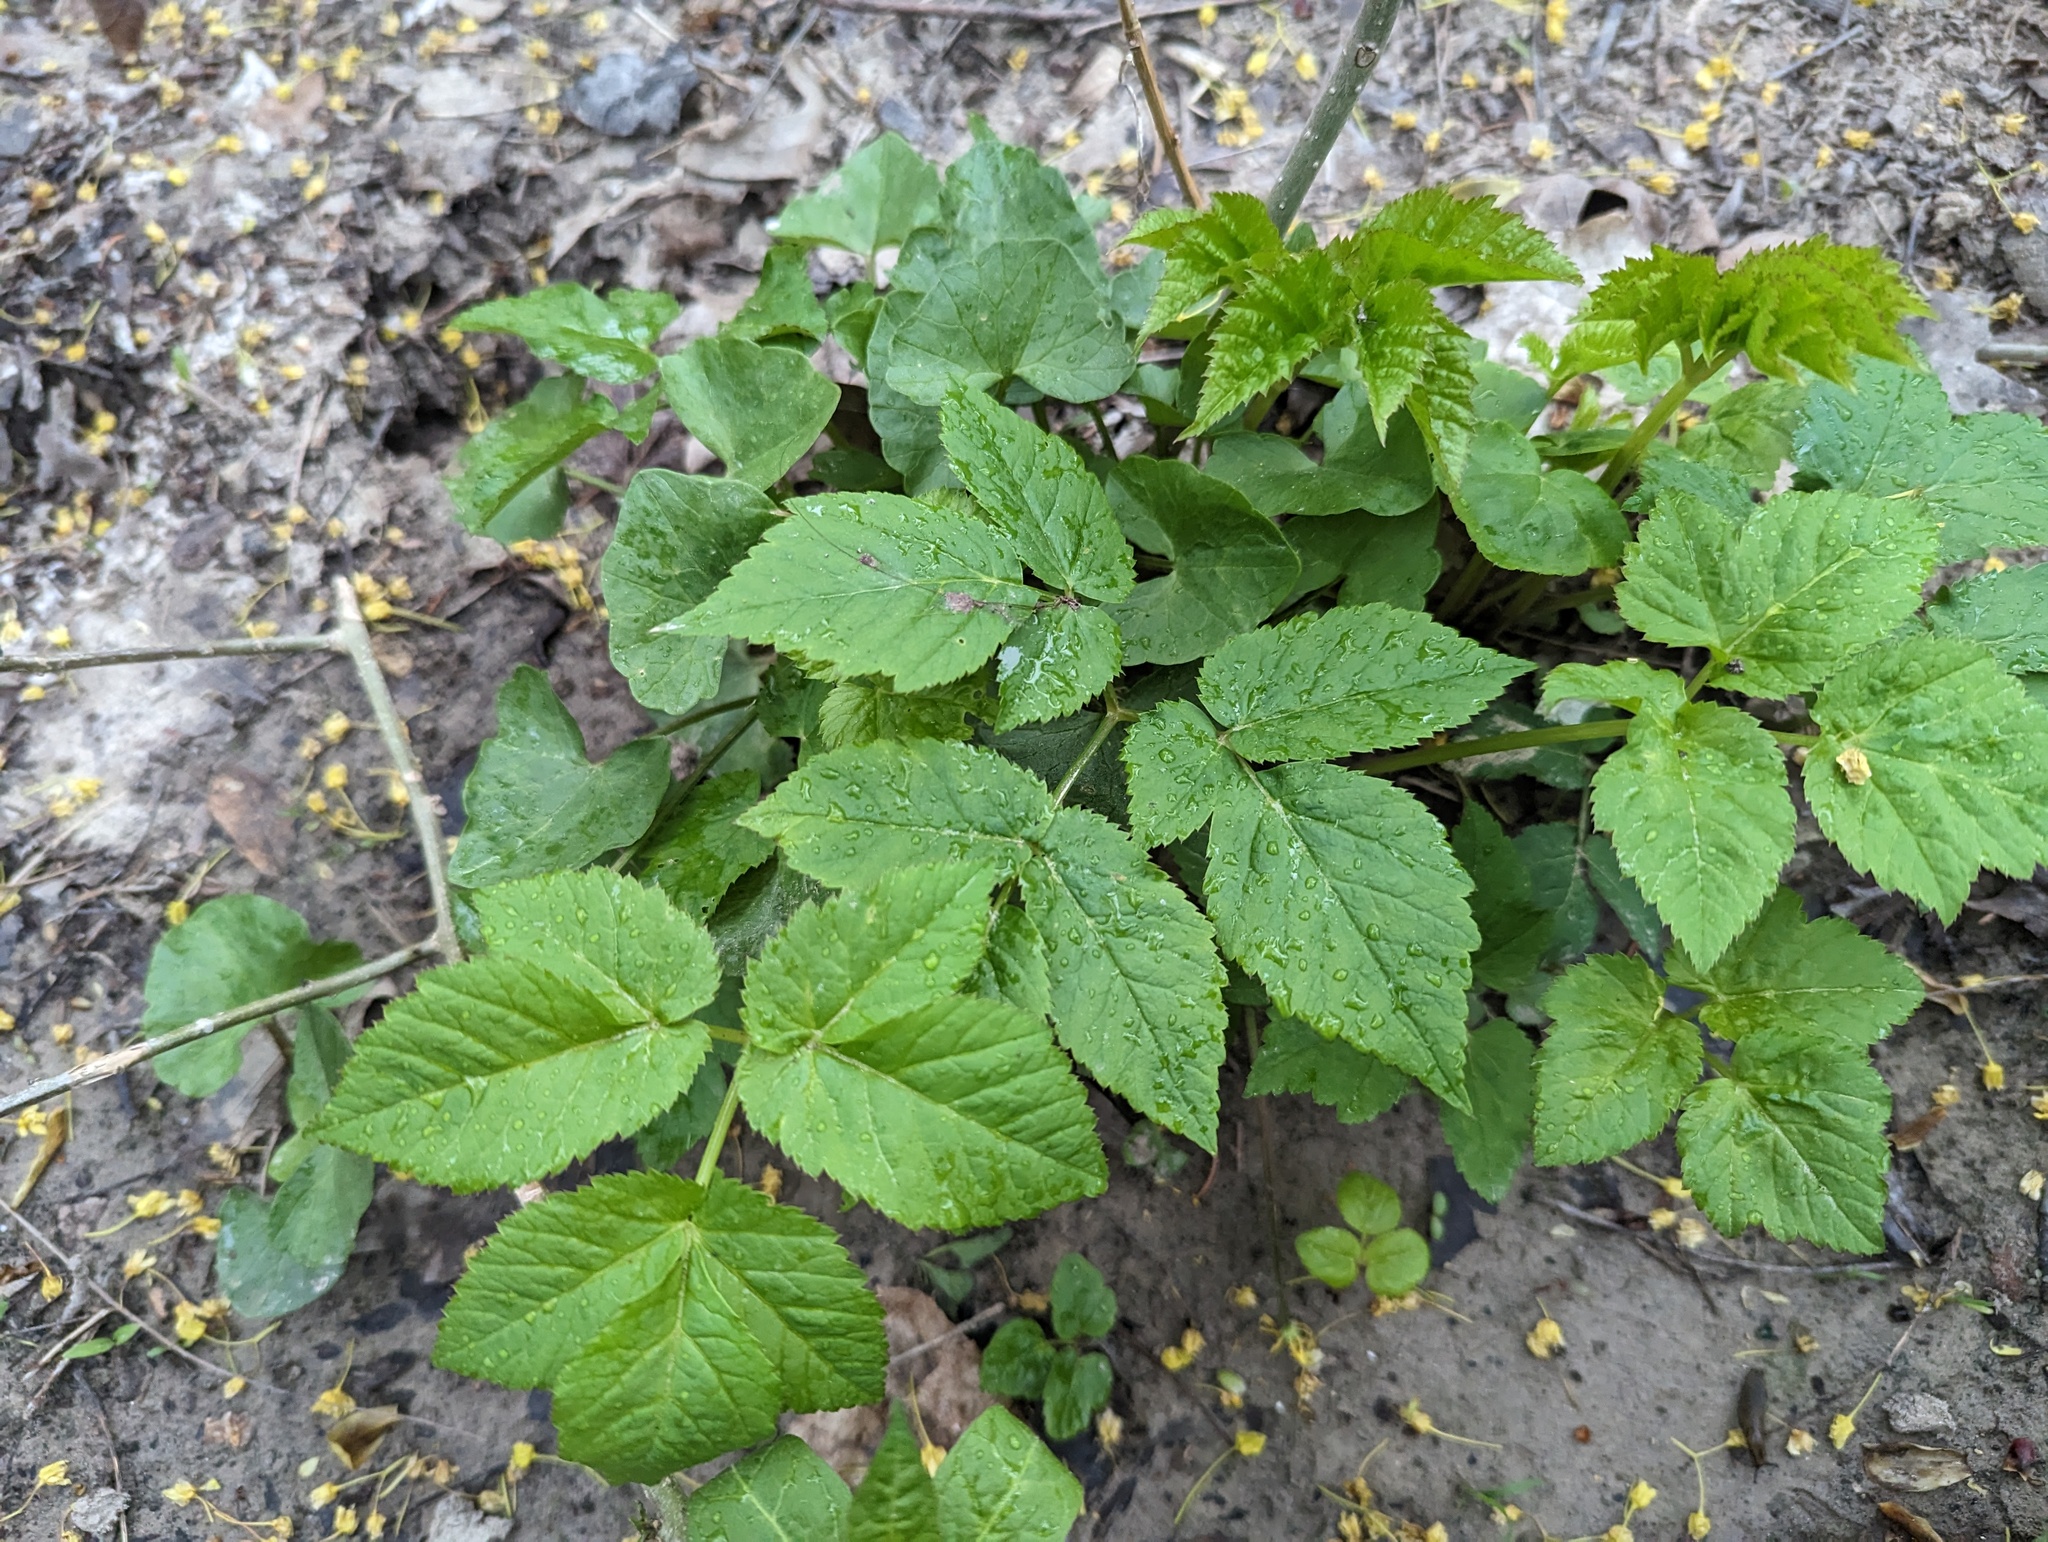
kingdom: Plantae
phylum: Tracheophyta
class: Magnoliopsida
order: Apiales
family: Apiaceae
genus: Aegopodium
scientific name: Aegopodium podagraria
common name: Ground-elder
